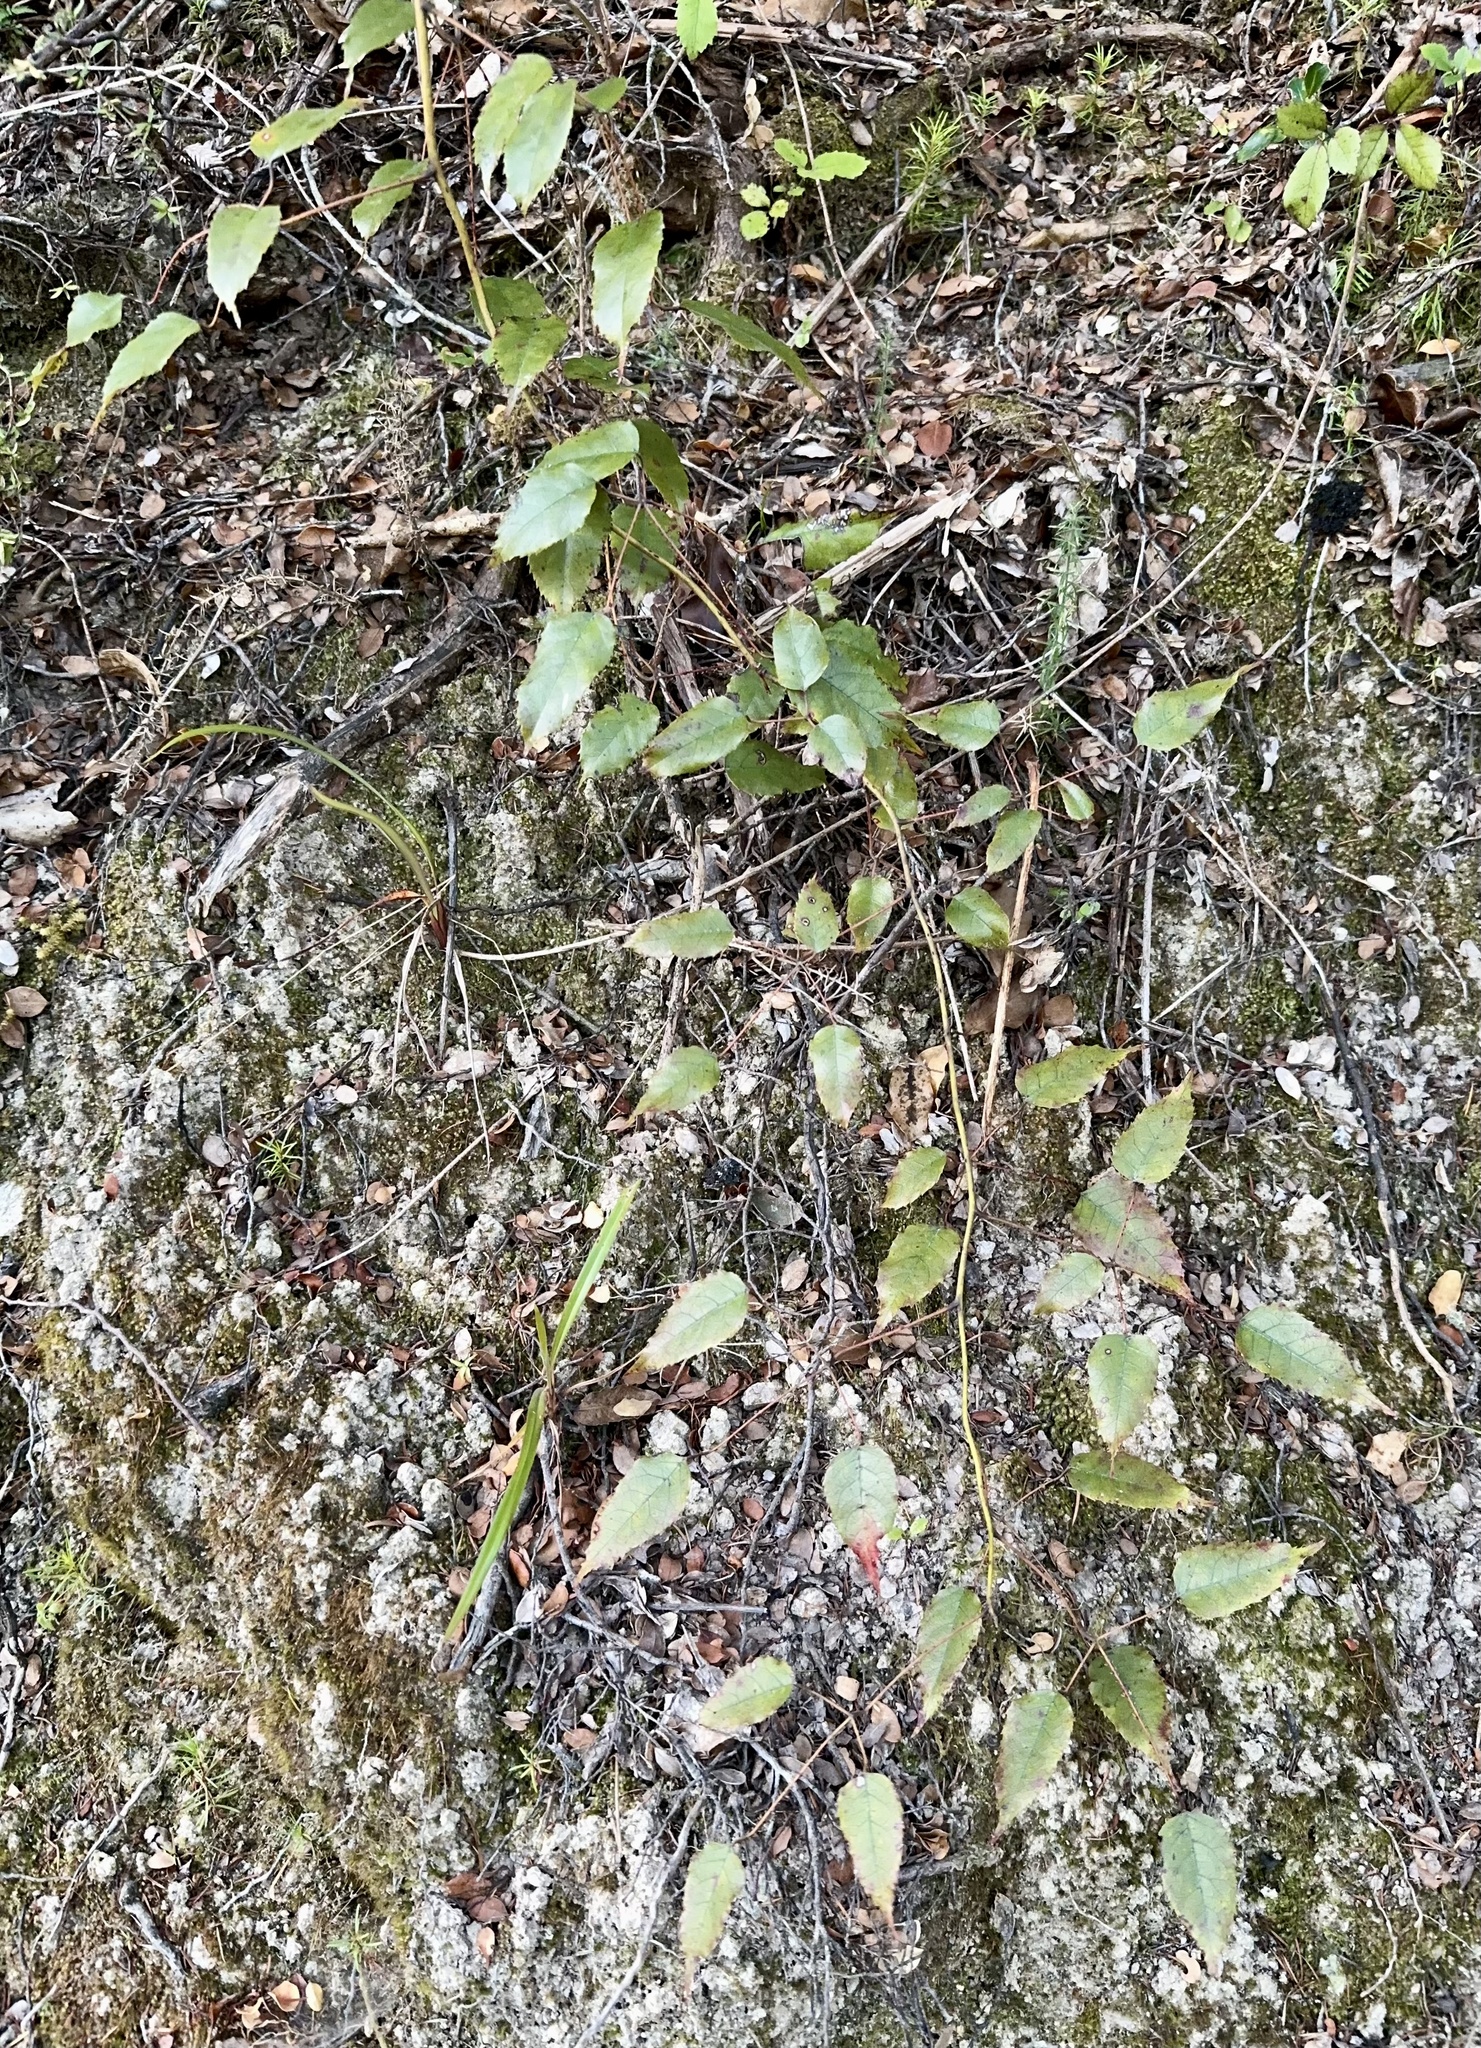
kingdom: Plantae
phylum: Tracheophyta
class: Magnoliopsida
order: Rosales
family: Rosaceae
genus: Rubus
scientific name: Rubus cissoides
